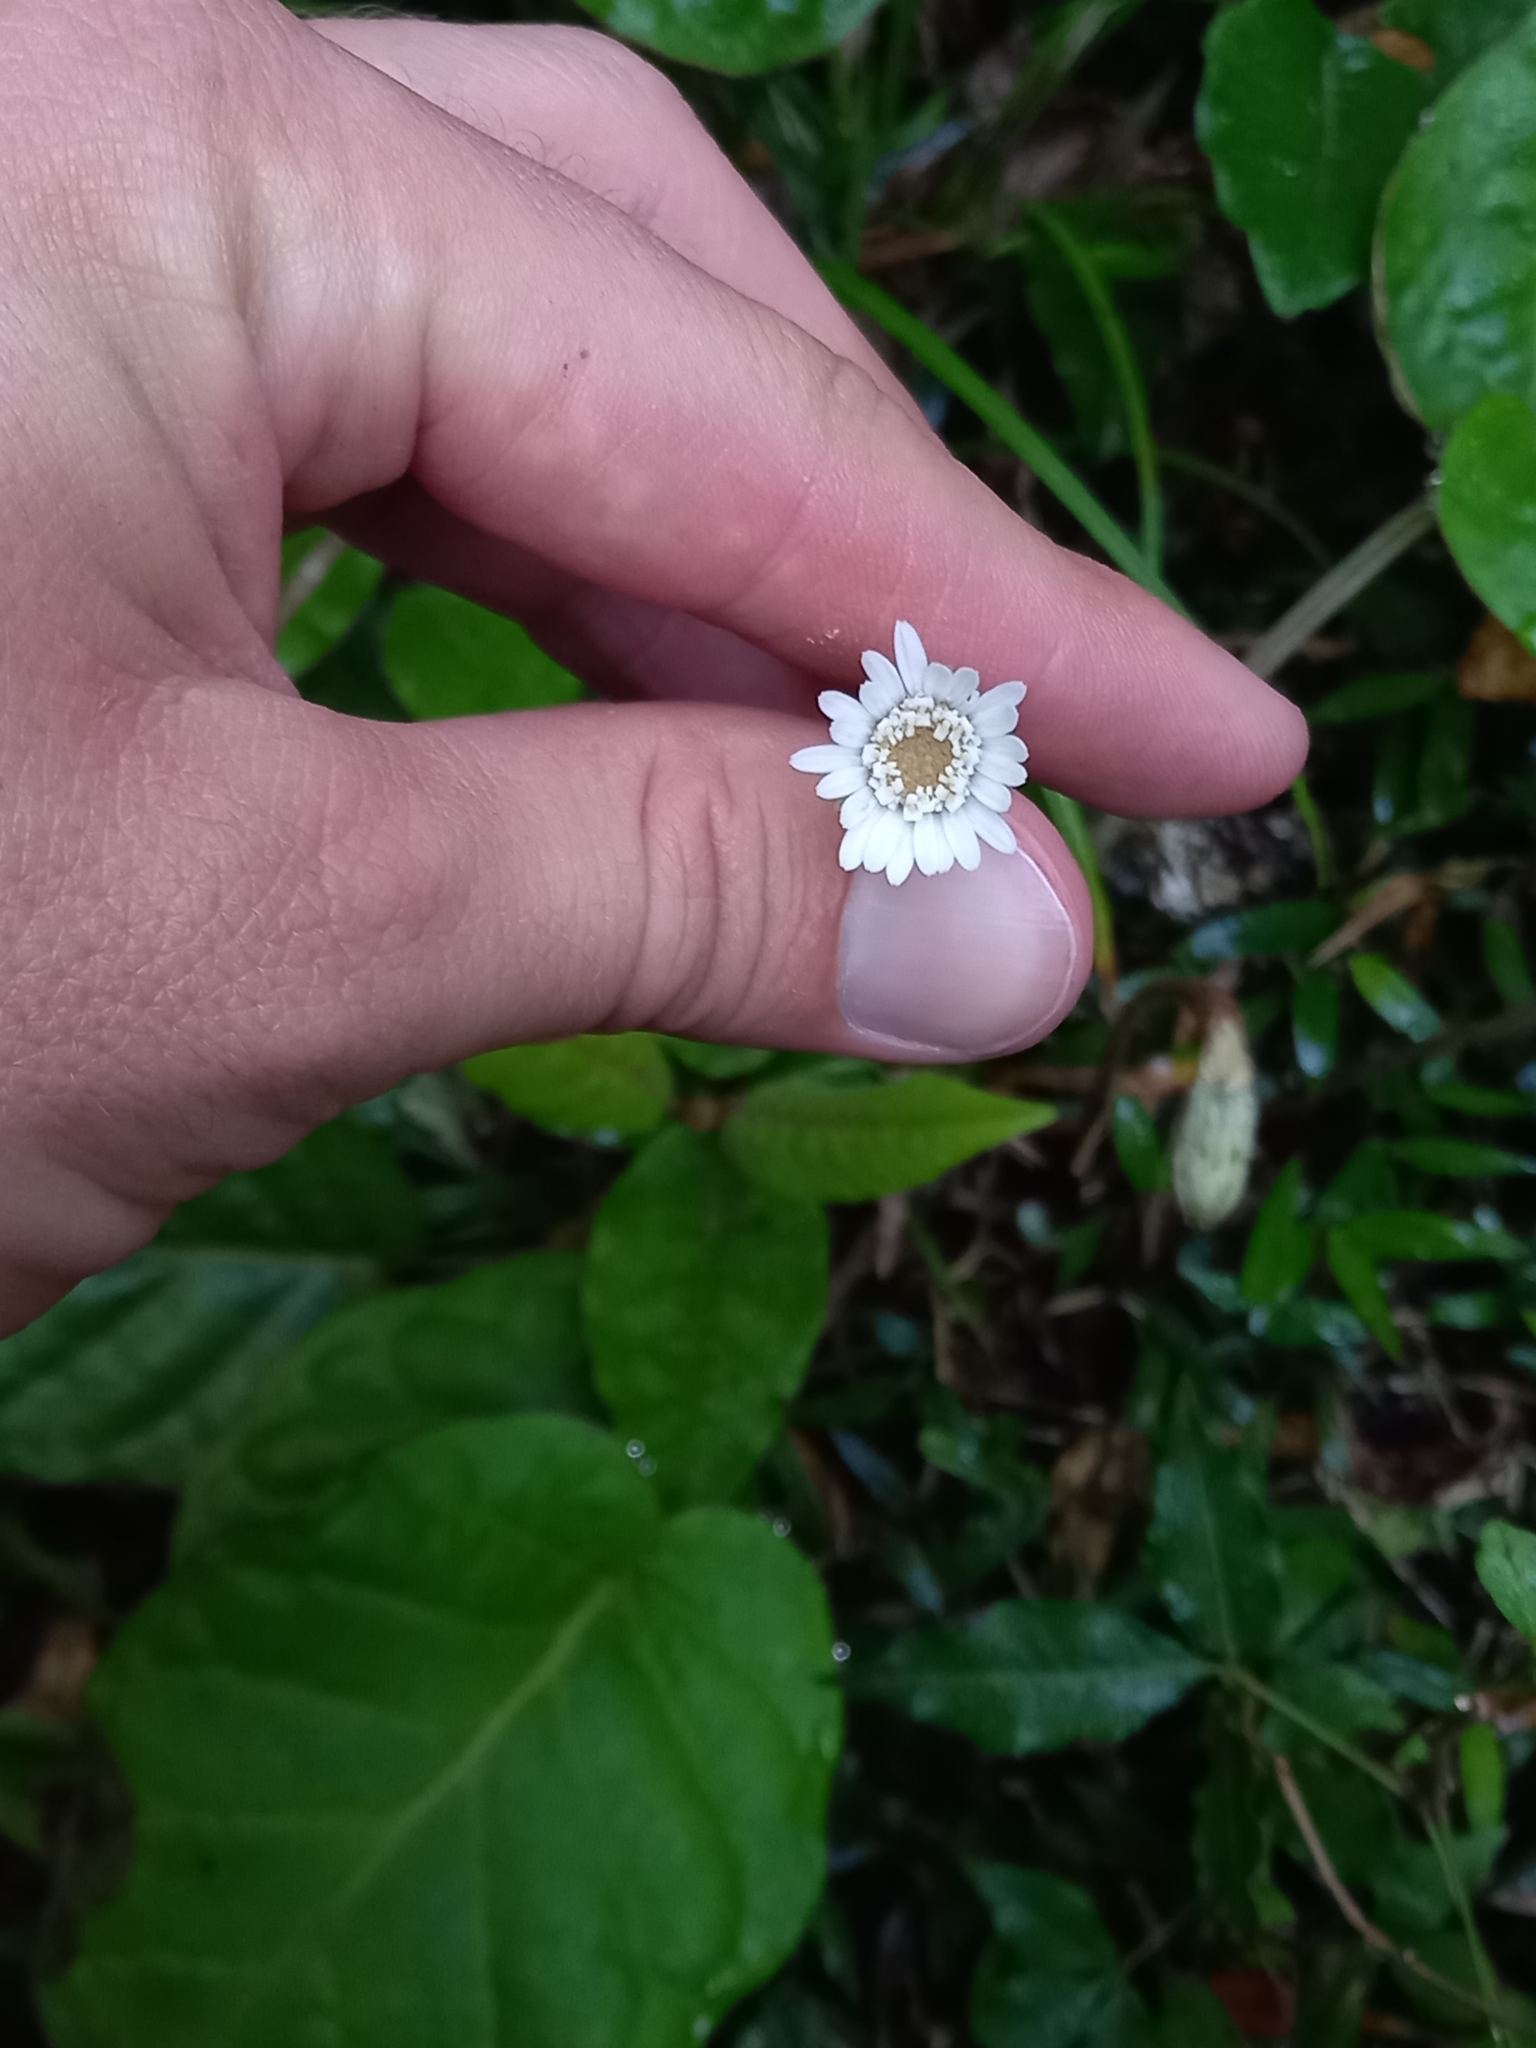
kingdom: Plantae
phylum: Tracheophyta
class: Magnoliopsida
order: Asterales
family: Asteraceae
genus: Piloselloides
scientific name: Piloselloides cordata
